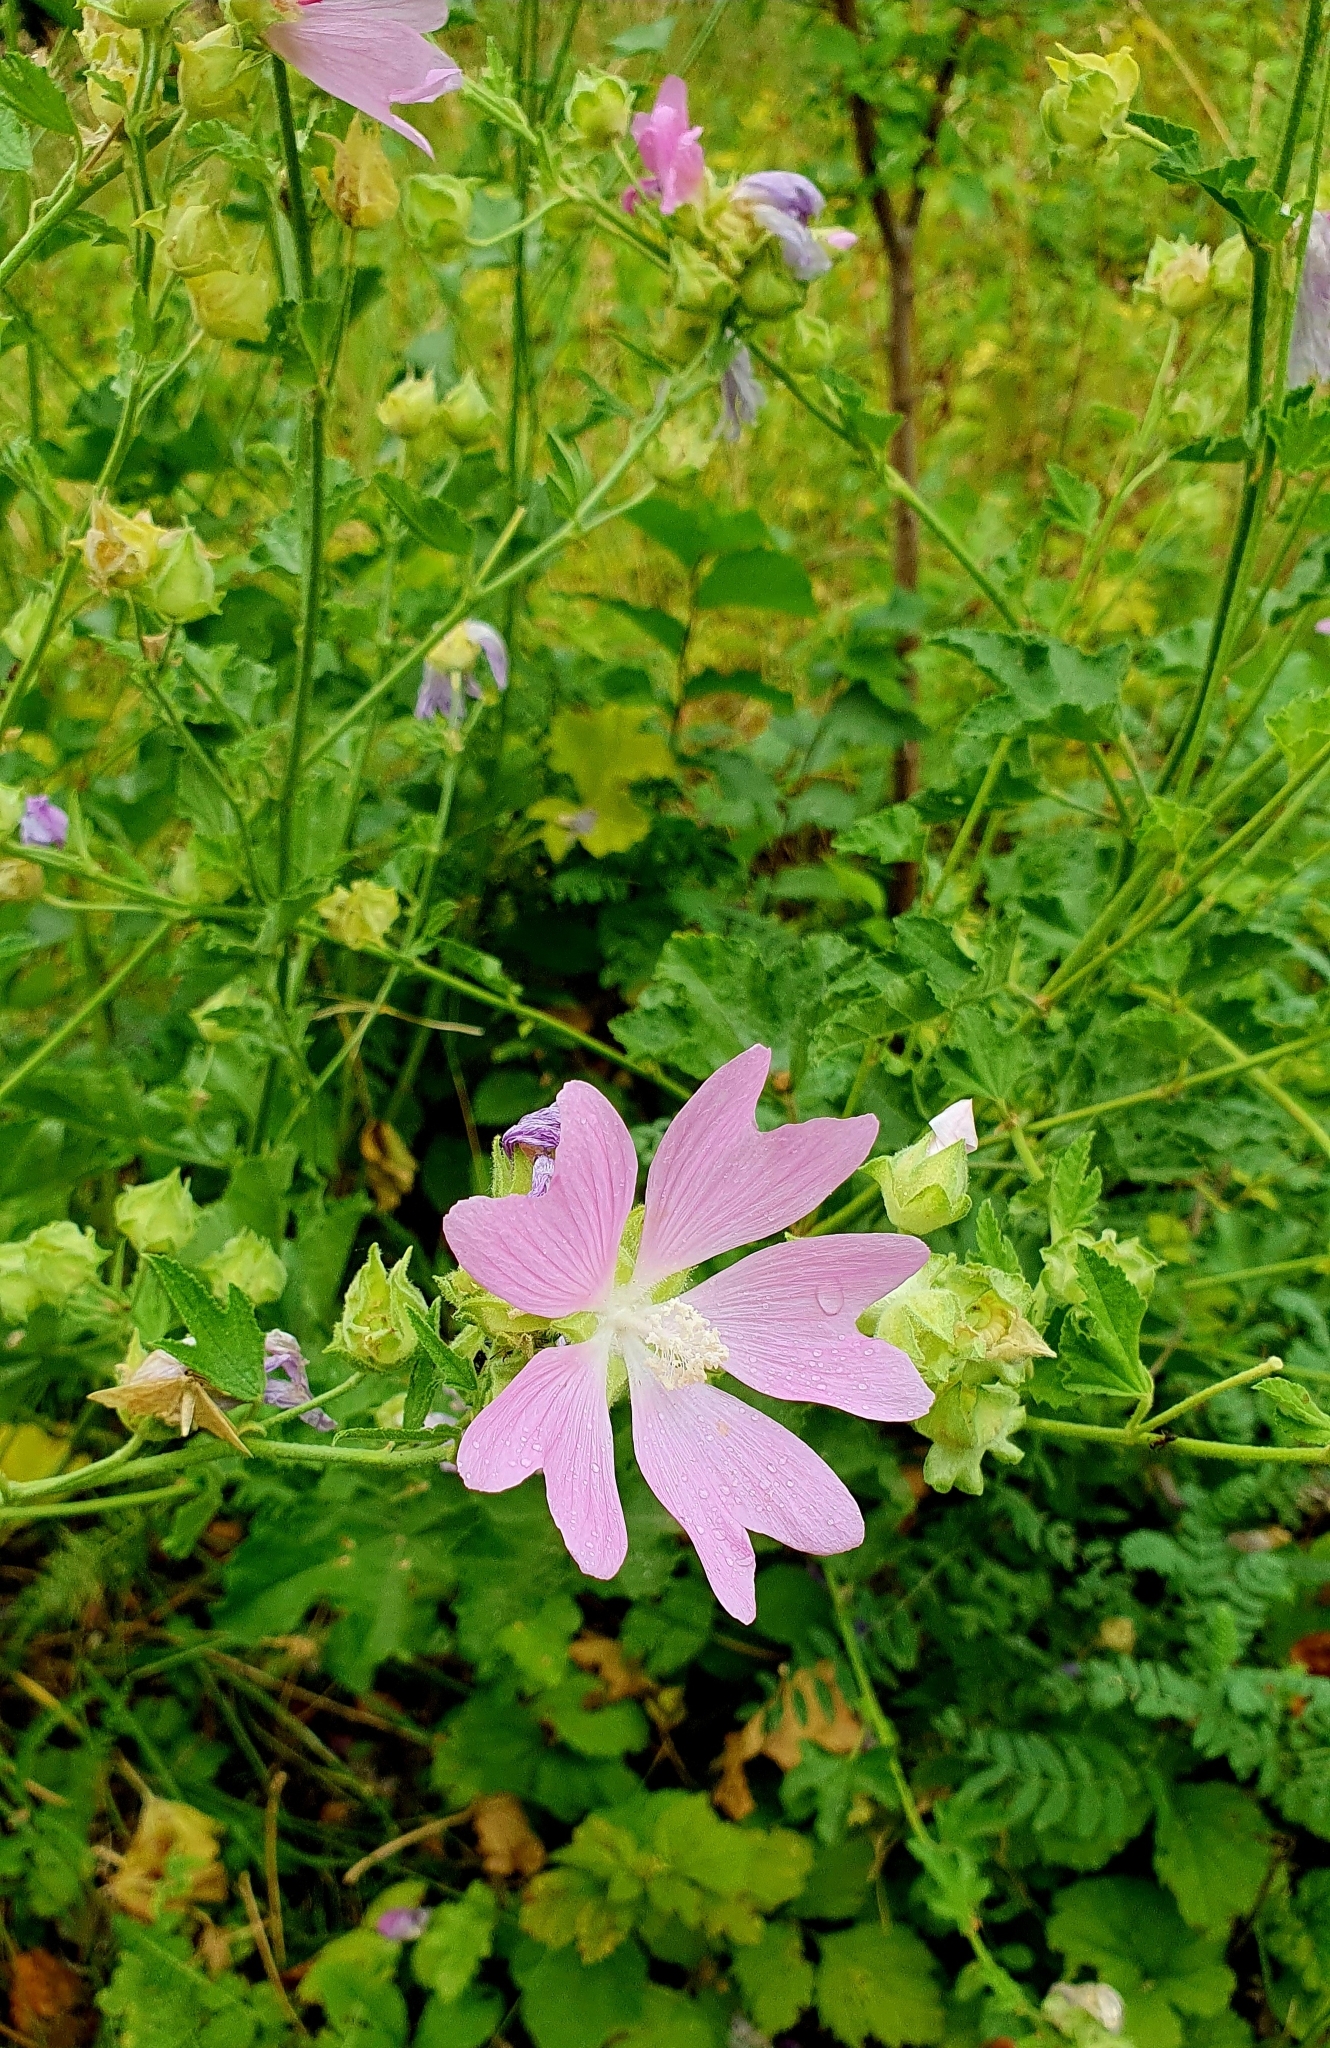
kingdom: Plantae
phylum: Tracheophyta
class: Magnoliopsida
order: Malvales
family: Malvaceae
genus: Malva
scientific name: Malva thuringiaca
